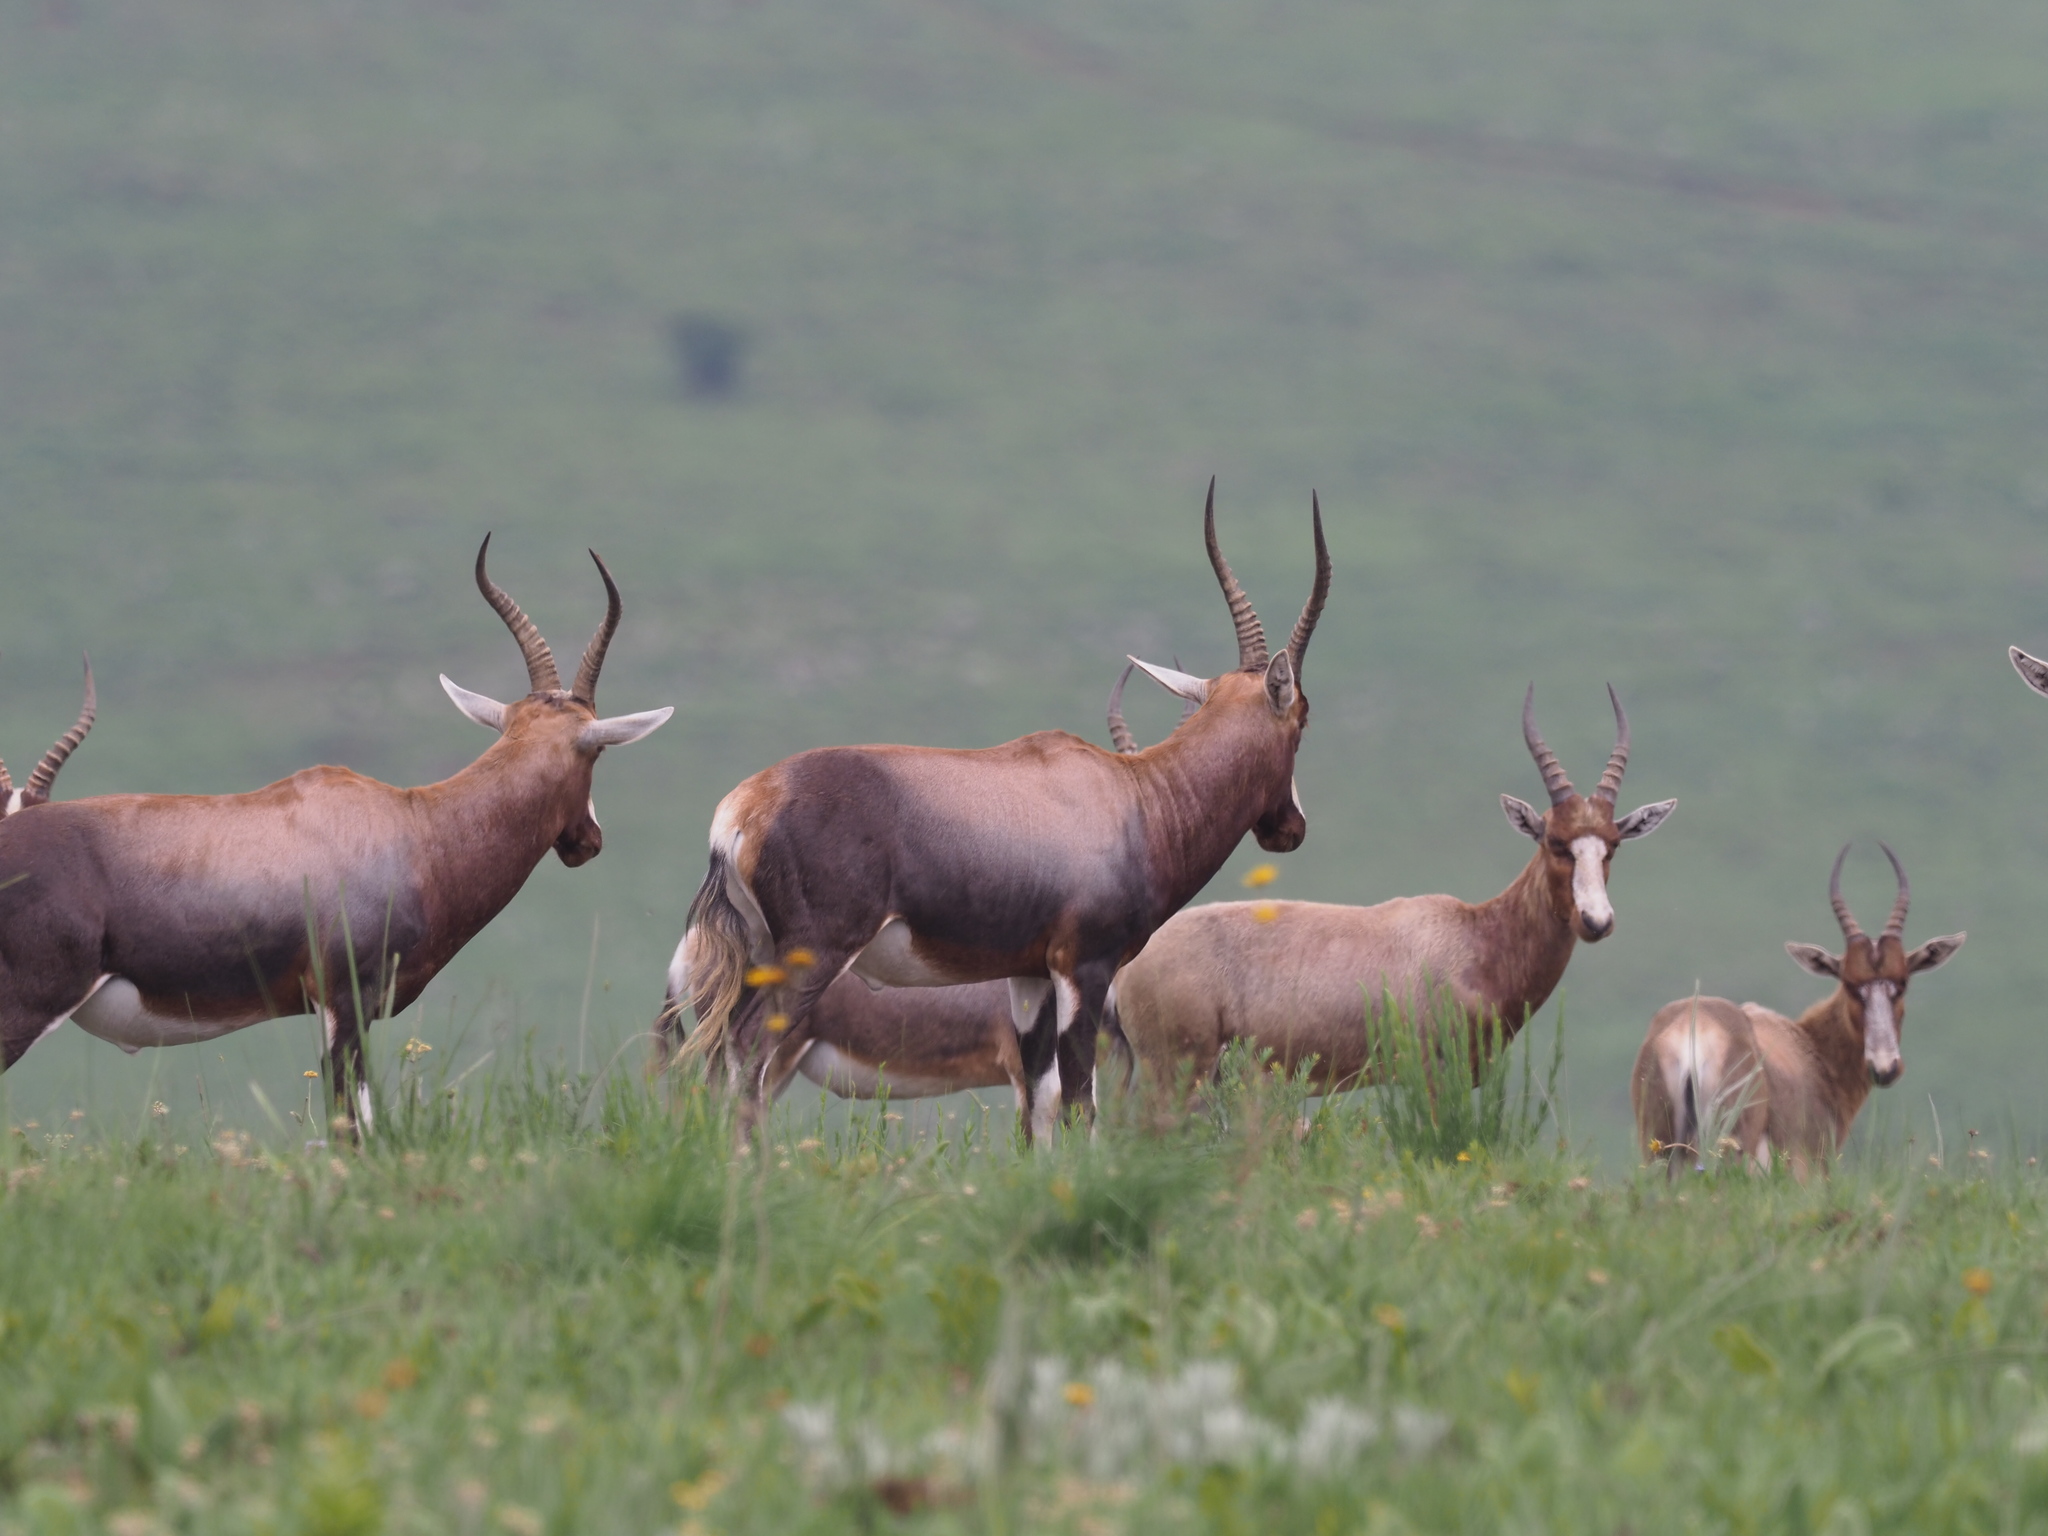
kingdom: Animalia
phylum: Chordata
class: Mammalia
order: Artiodactyla
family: Bovidae
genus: Damaliscus
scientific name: Damaliscus pygargus
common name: Bontebok
